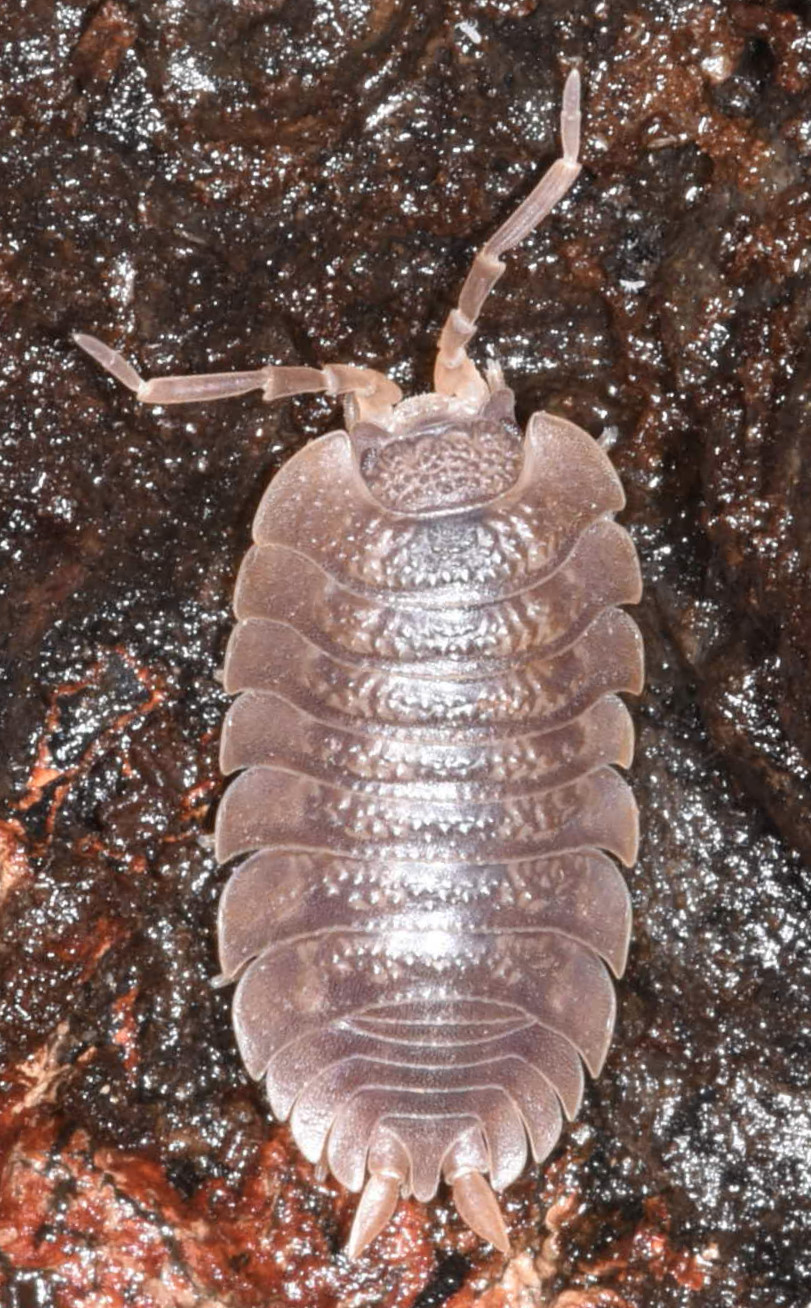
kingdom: Animalia
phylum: Arthropoda
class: Malacostraca
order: Isopoda
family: Porcellionidae
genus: Porcellio
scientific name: Porcellio dilatatus
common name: Isopod
